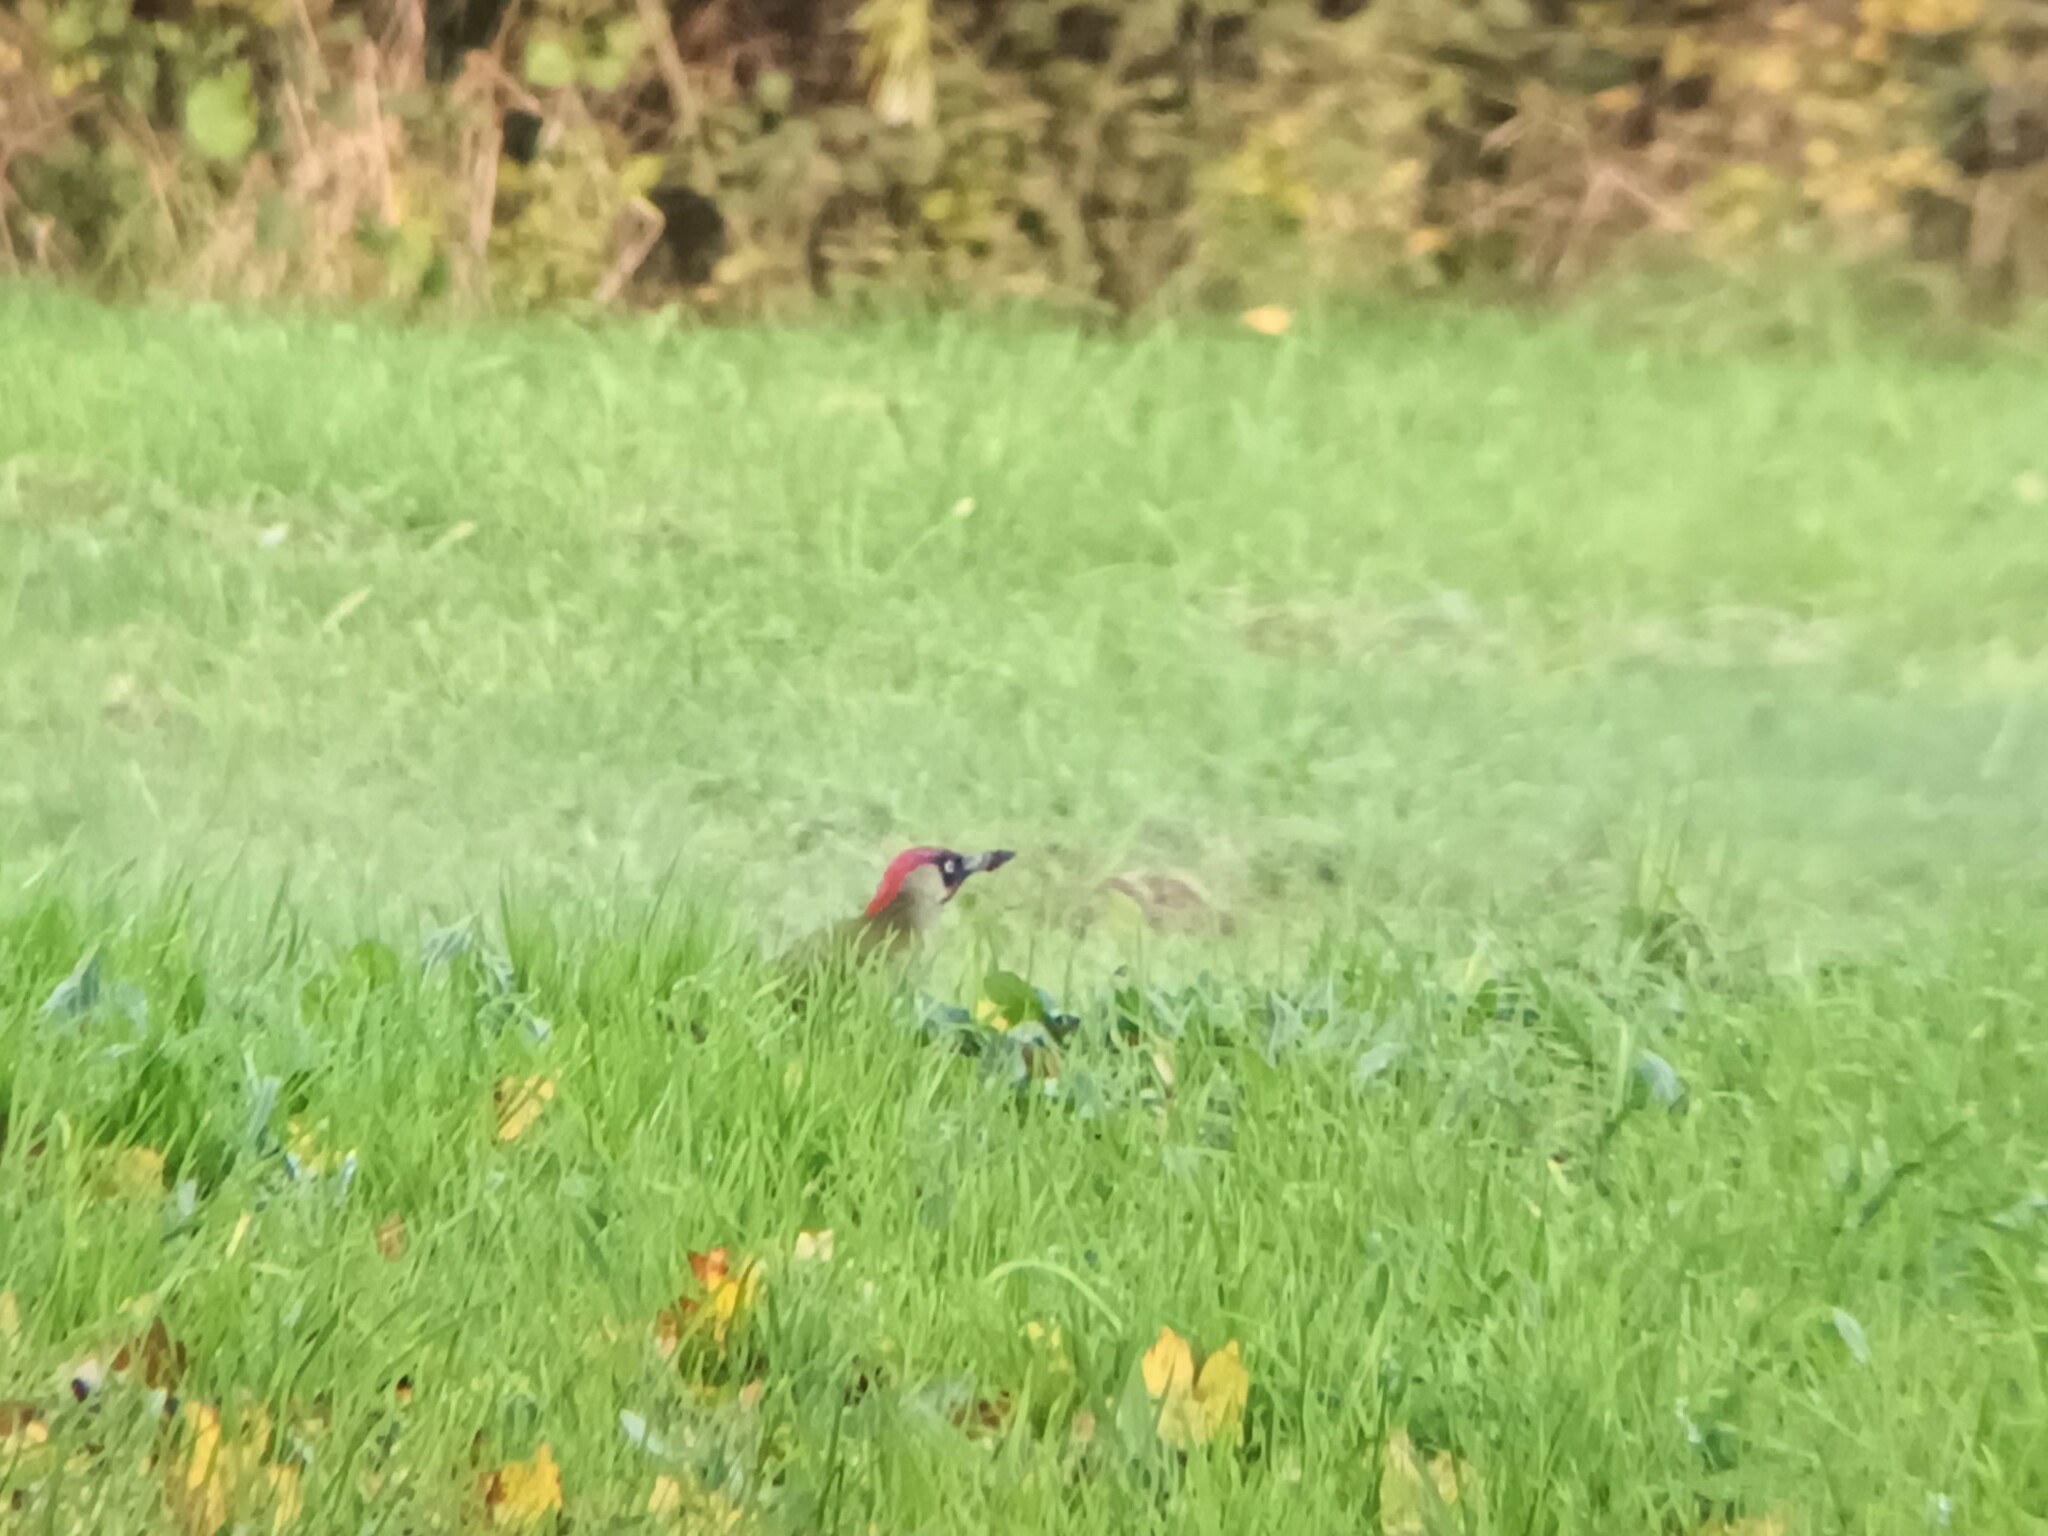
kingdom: Animalia
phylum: Chordata
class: Aves
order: Piciformes
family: Picidae
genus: Picus
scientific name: Picus viridis
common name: European green woodpecker
